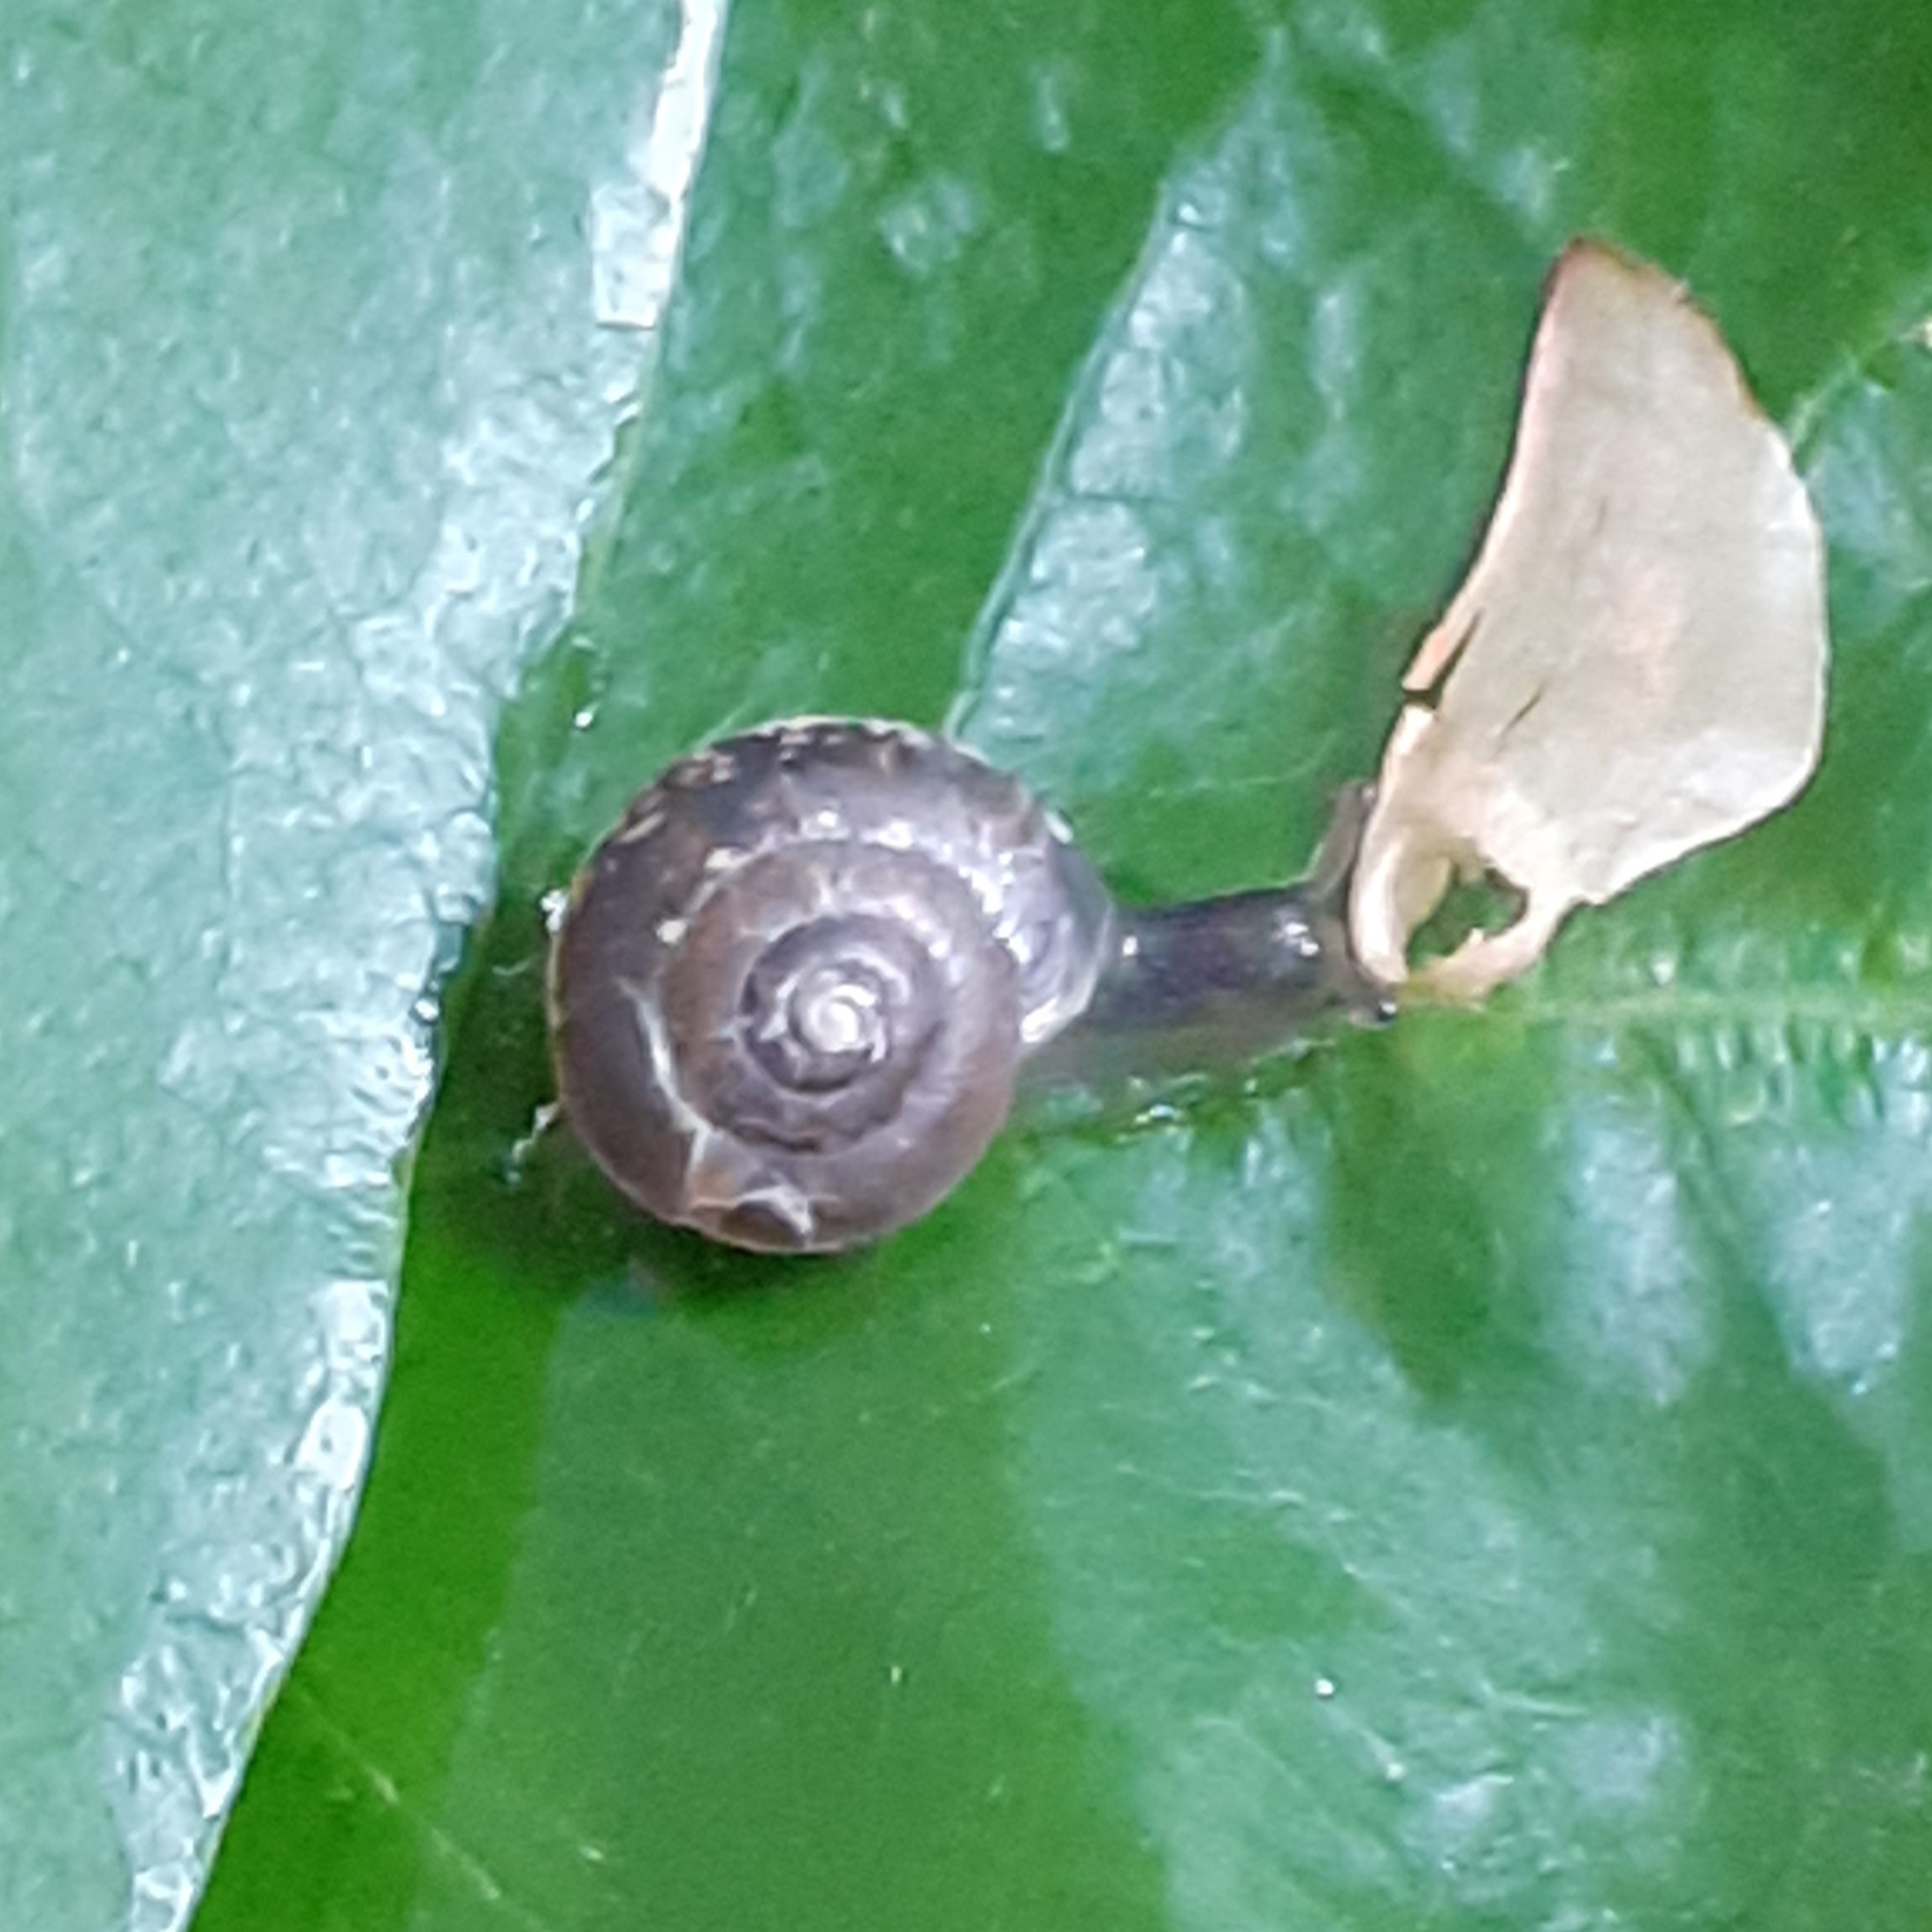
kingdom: Animalia
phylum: Mollusca
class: Gastropoda
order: Stylommatophora
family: Hygromiidae
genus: Hygromia
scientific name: Hygromia cinctella
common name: Girdled snail
